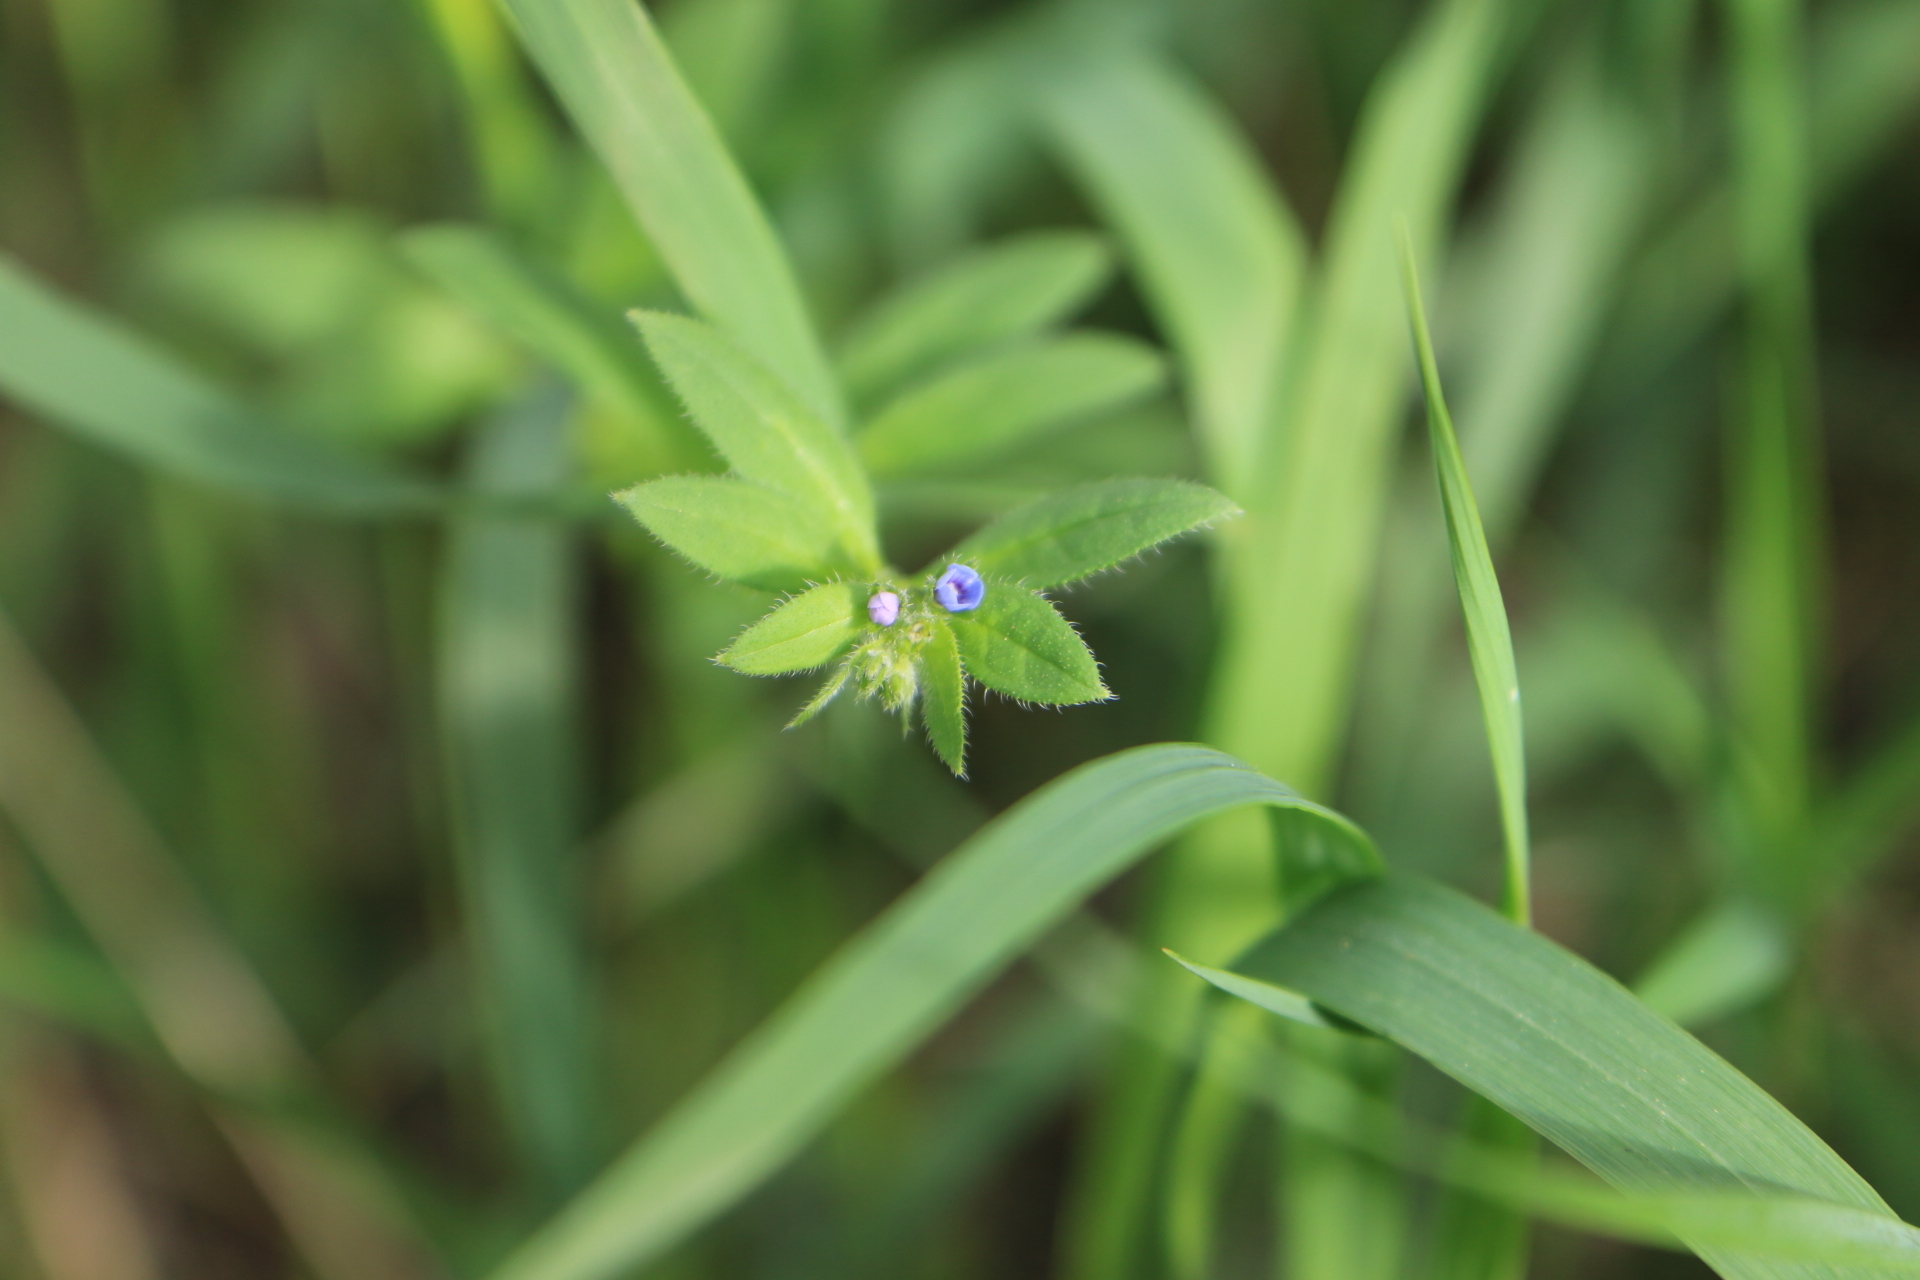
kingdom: Plantae
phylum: Tracheophyta
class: Magnoliopsida
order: Boraginales
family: Boraginaceae
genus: Asperugo
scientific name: Asperugo procumbens
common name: Madwort
